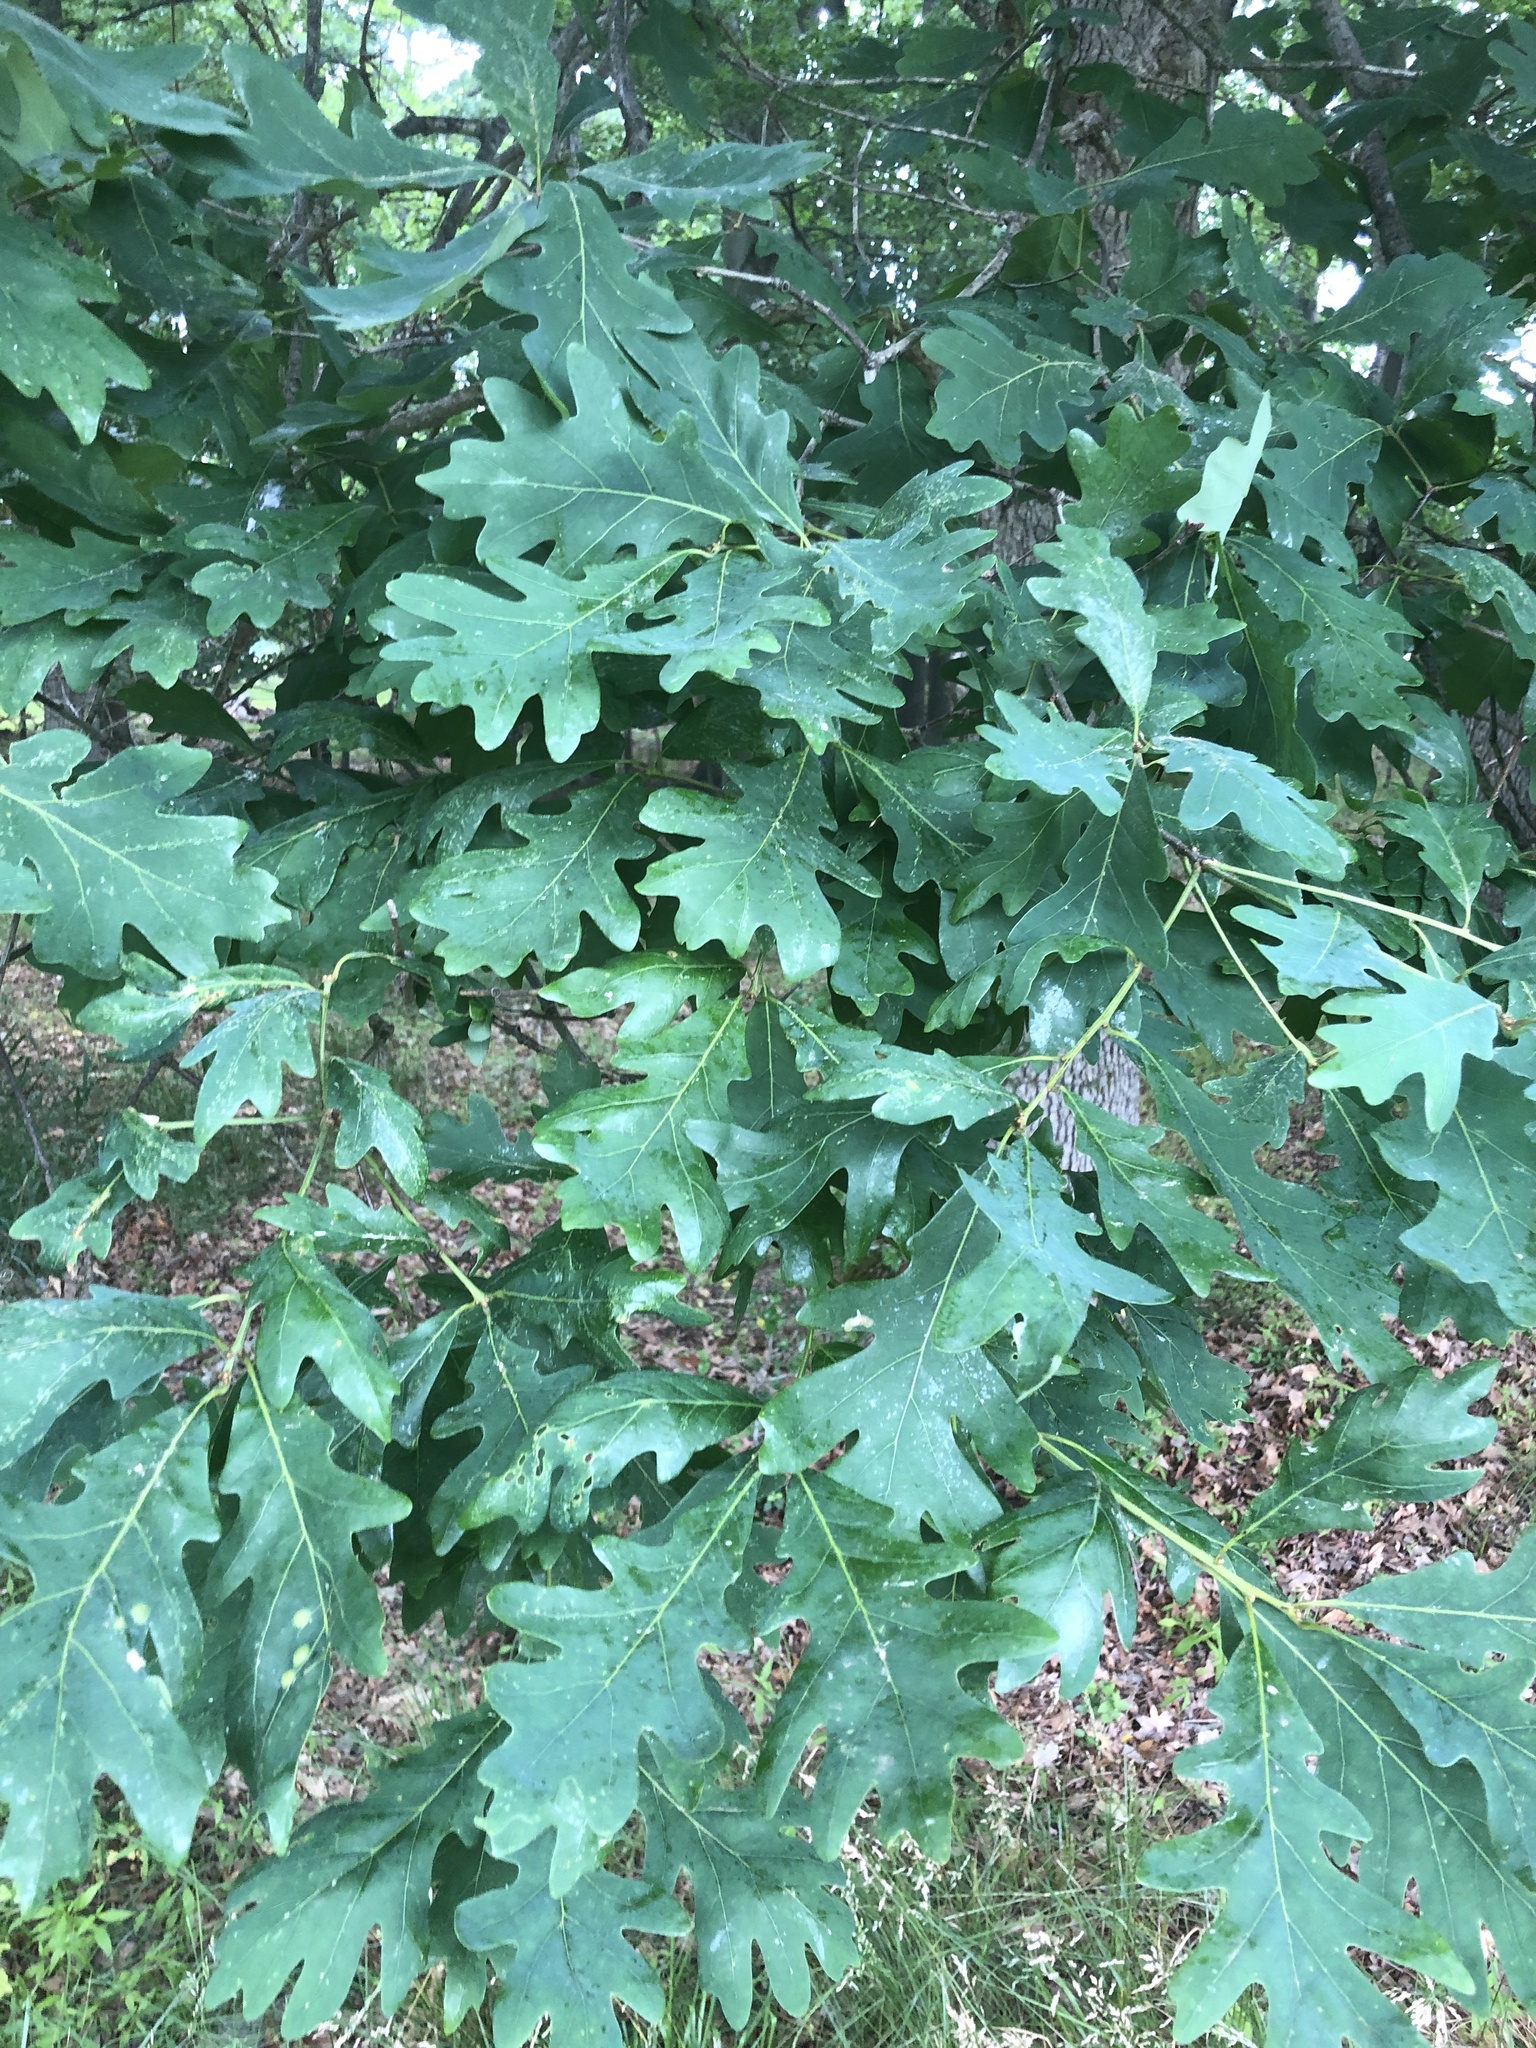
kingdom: Plantae
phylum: Tracheophyta
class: Magnoliopsida
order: Fagales
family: Fagaceae
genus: Quercus
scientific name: Quercus alba
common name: White oak
